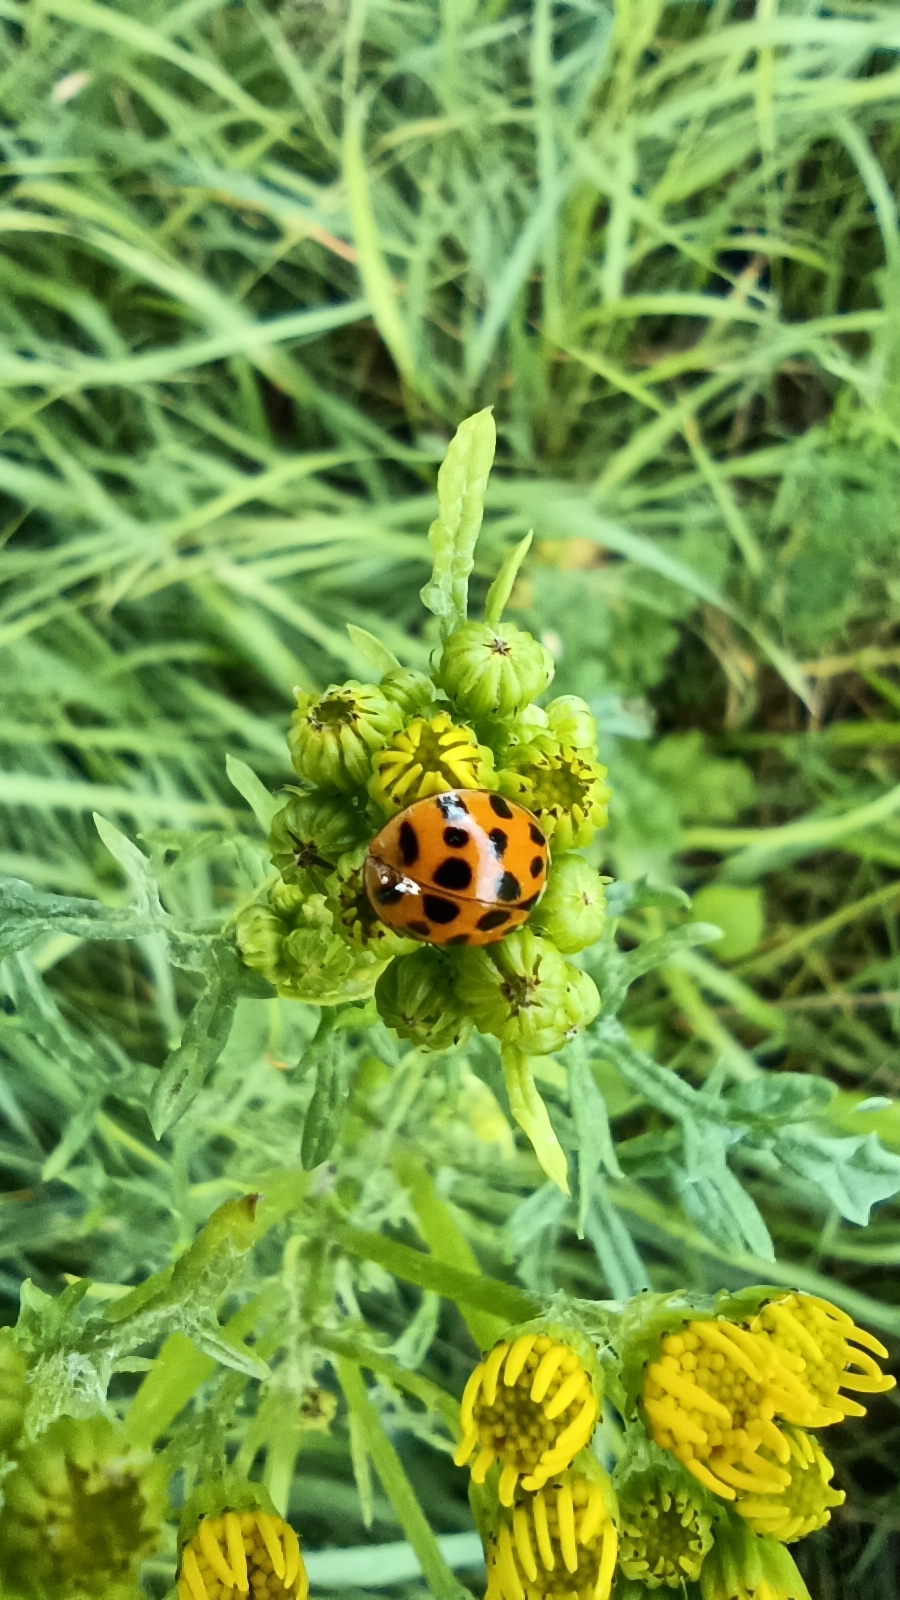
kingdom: Animalia
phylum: Arthropoda
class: Insecta
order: Coleoptera
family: Coccinellidae
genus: Harmonia
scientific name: Harmonia axyridis
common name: Harlequin ladybird
